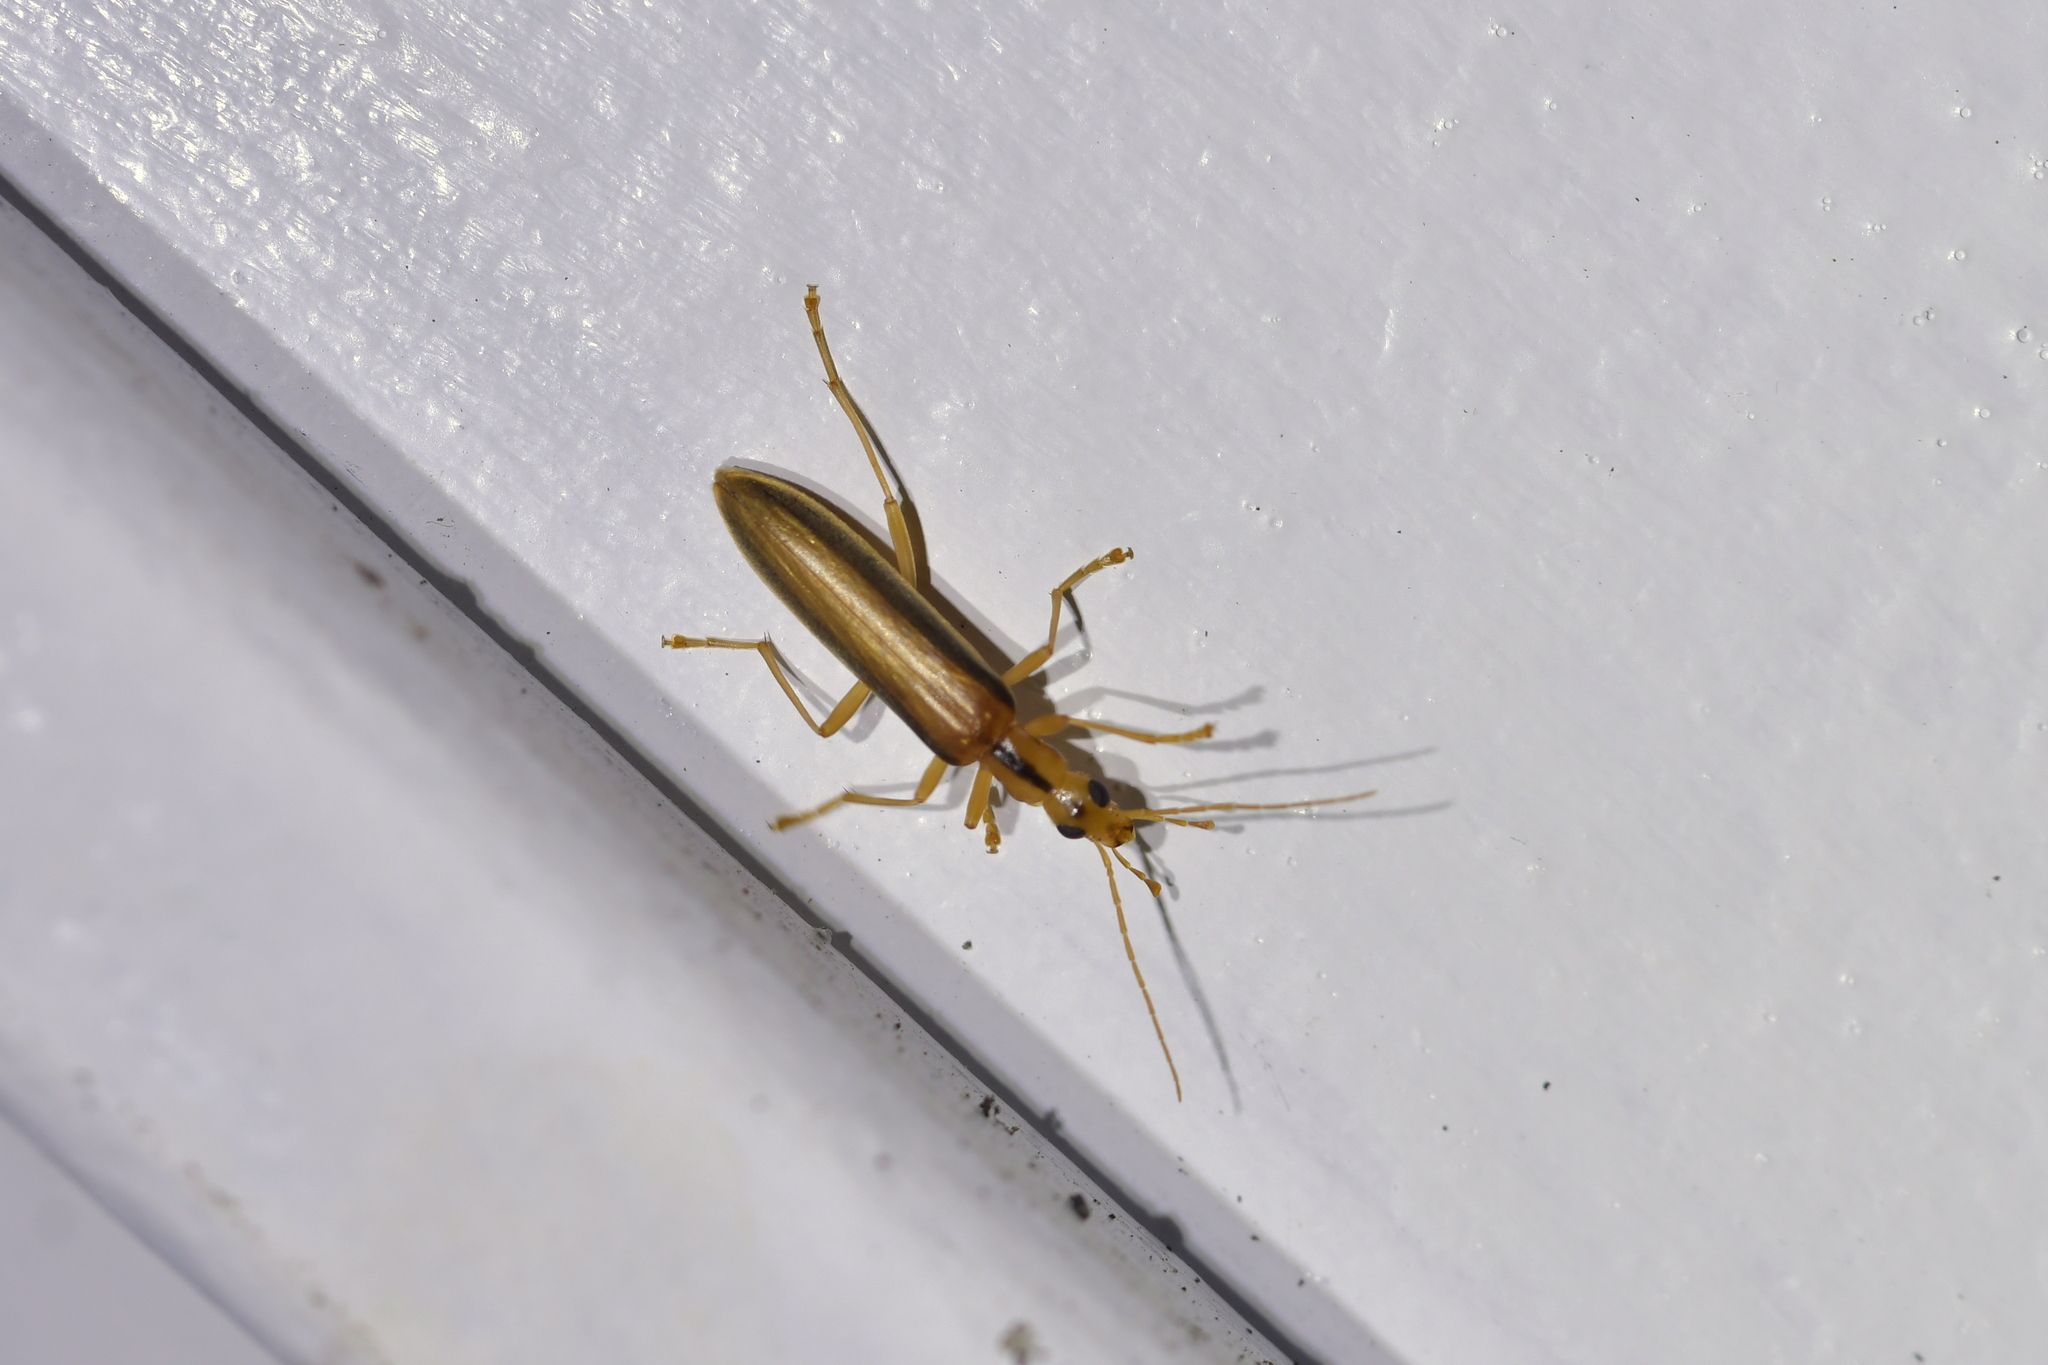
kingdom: Animalia
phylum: Arthropoda
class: Insecta
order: Coleoptera
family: Oedemeridae
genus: Thelyphassa
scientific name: Thelyphassa
